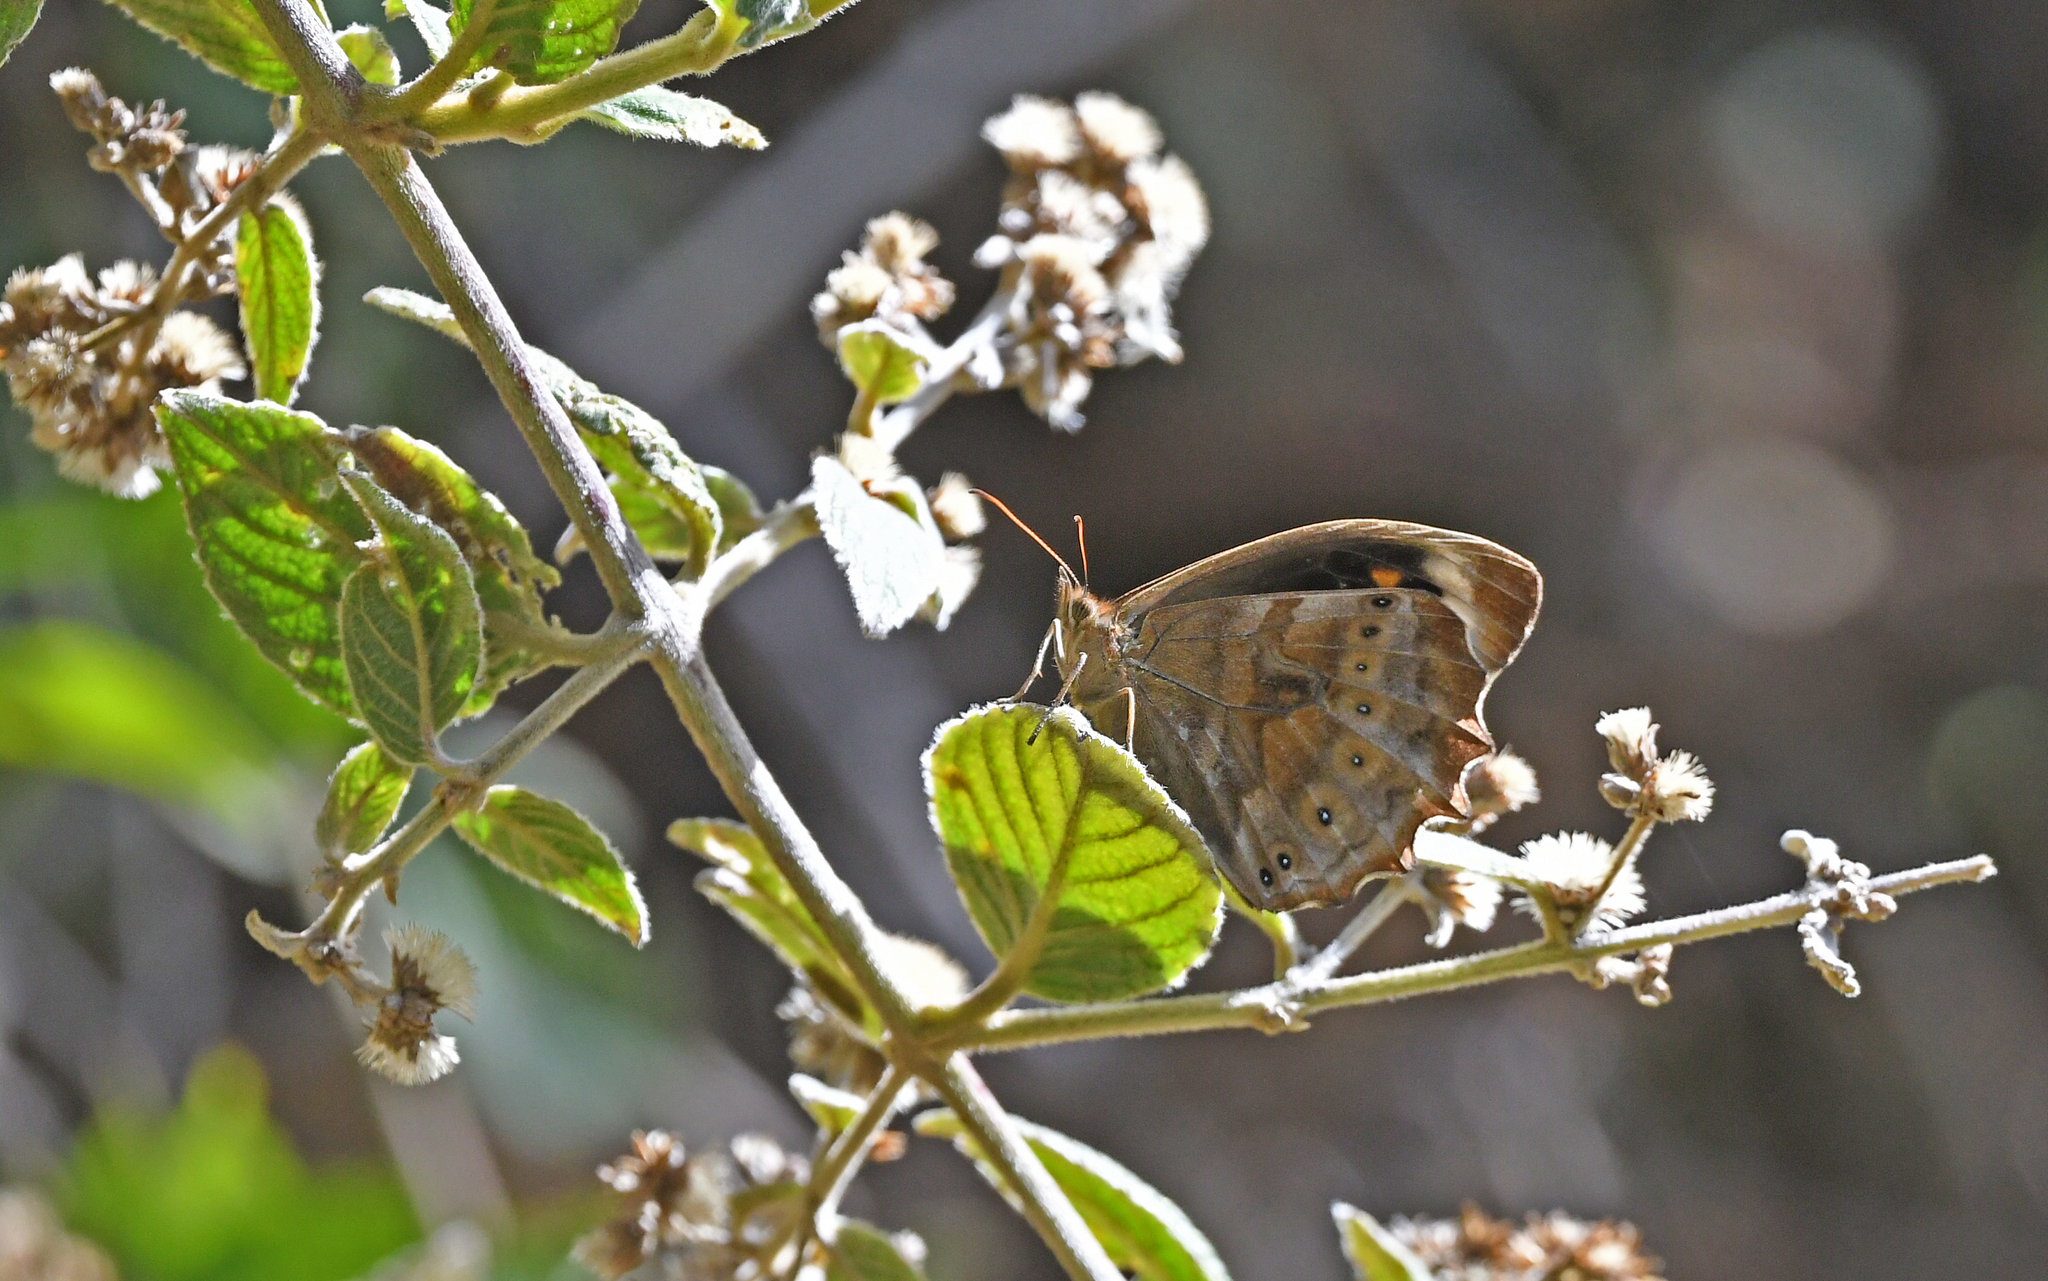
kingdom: Animalia
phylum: Arthropoda
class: Insecta
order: Lepidoptera
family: Nymphalidae
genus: Pronophila
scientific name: Pronophila juliani
